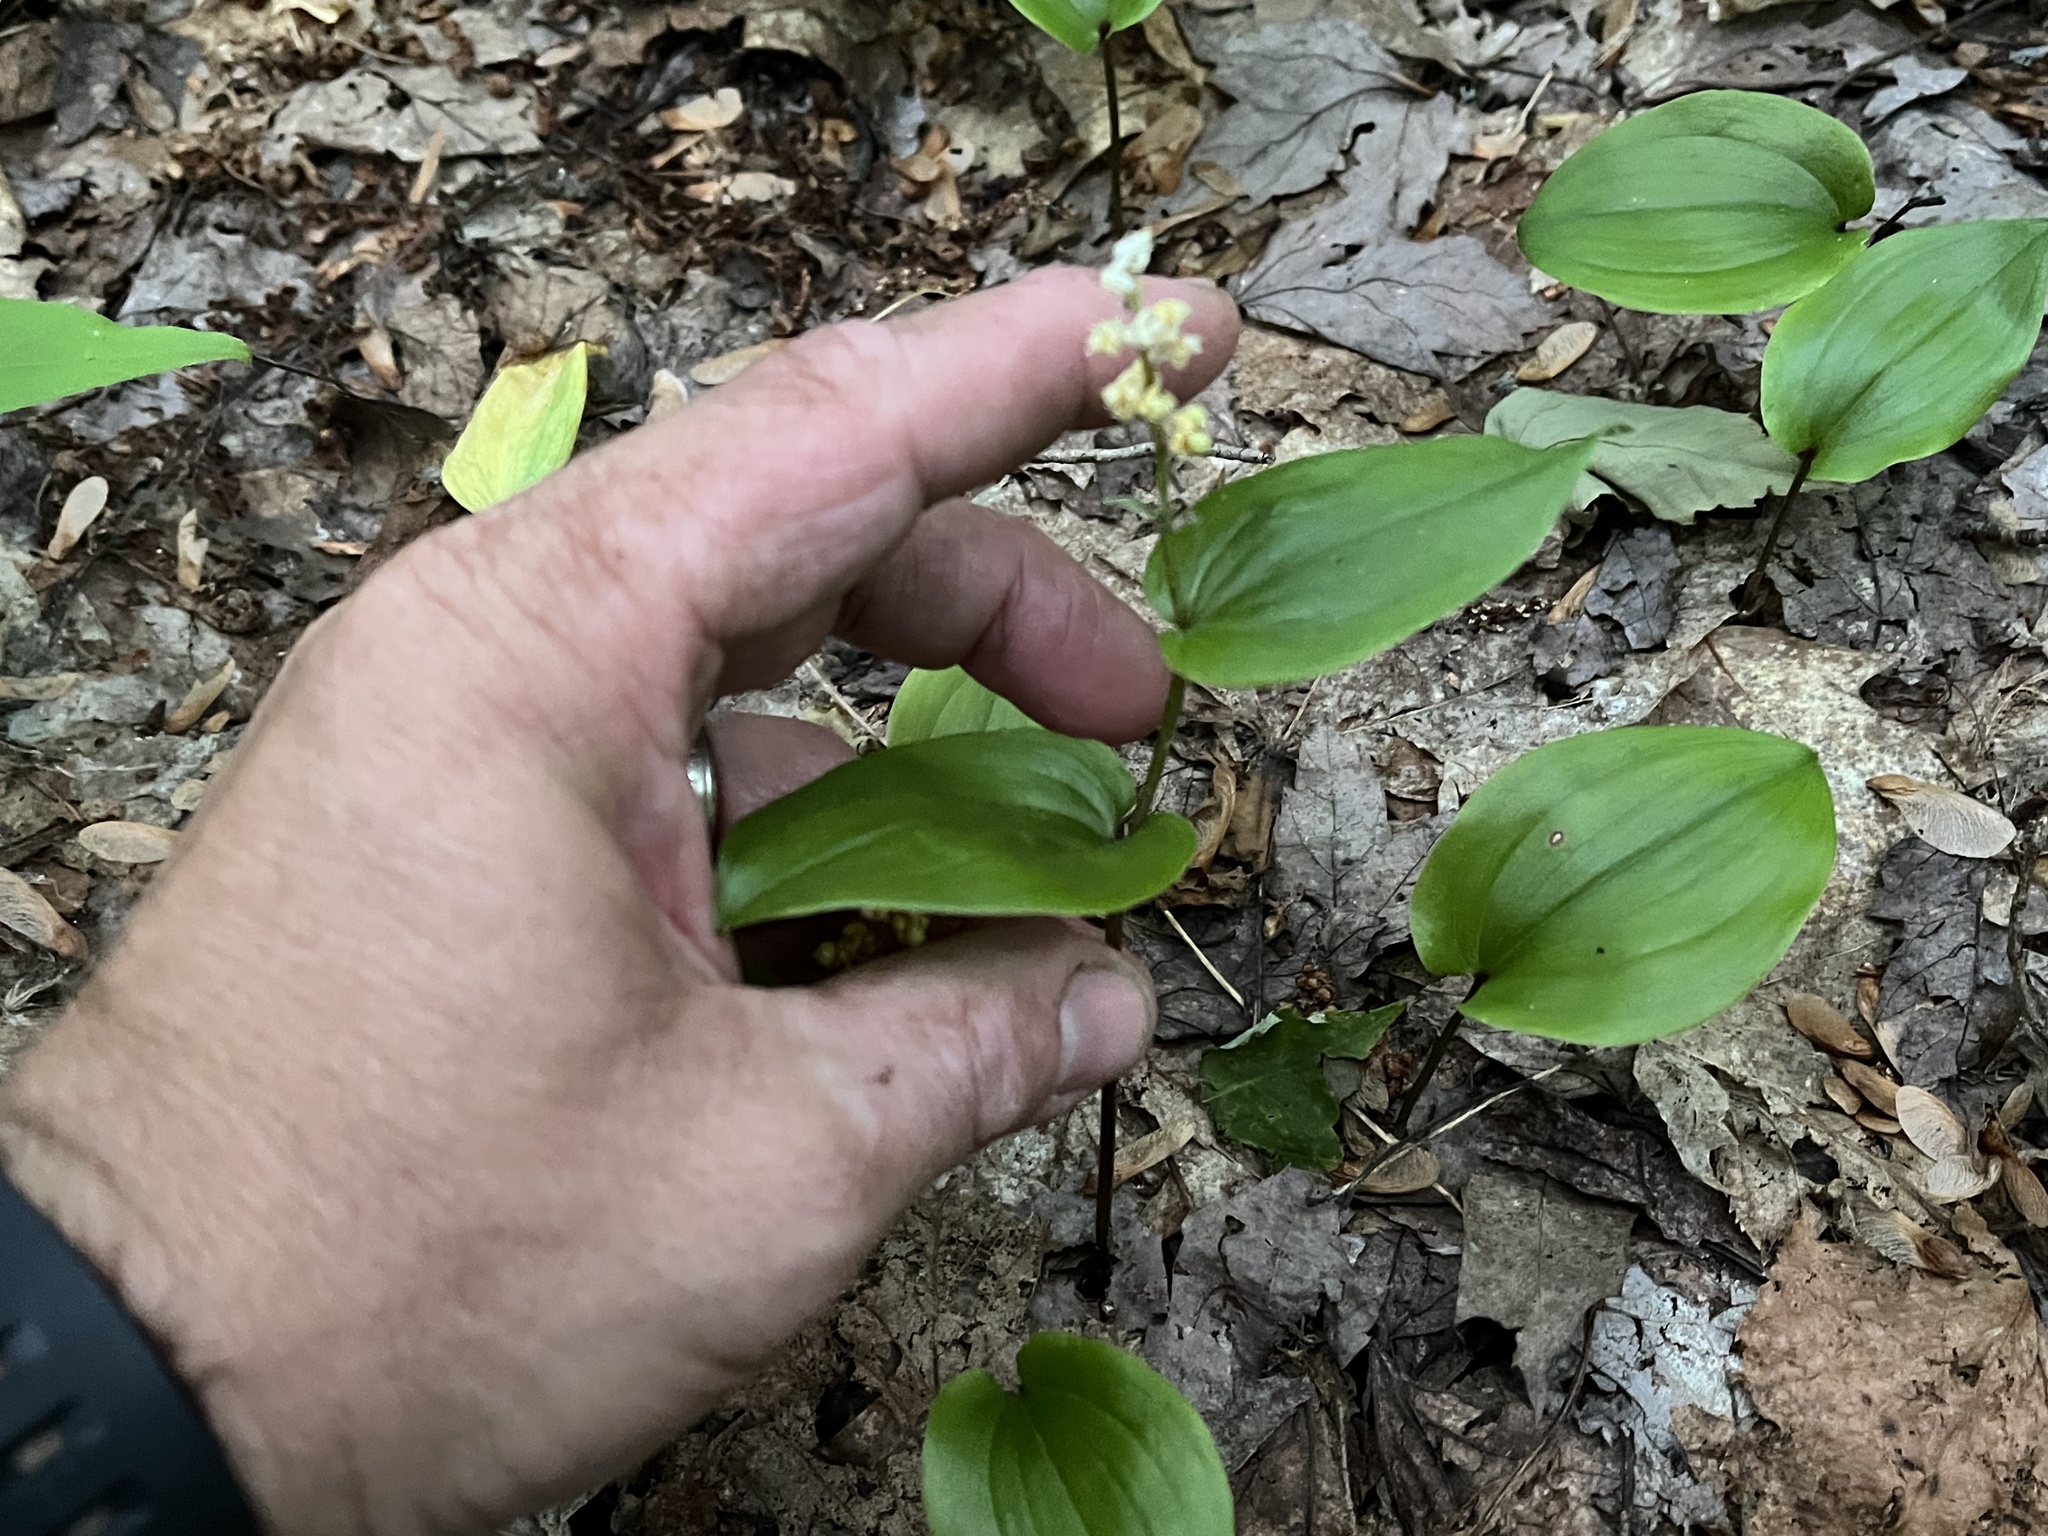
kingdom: Plantae
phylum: Tracheophyta
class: Liliopsida
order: Asparagales
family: Asparagaceae
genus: Maianthemum
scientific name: Maianthemum canadense
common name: False lily-of-the-valley
